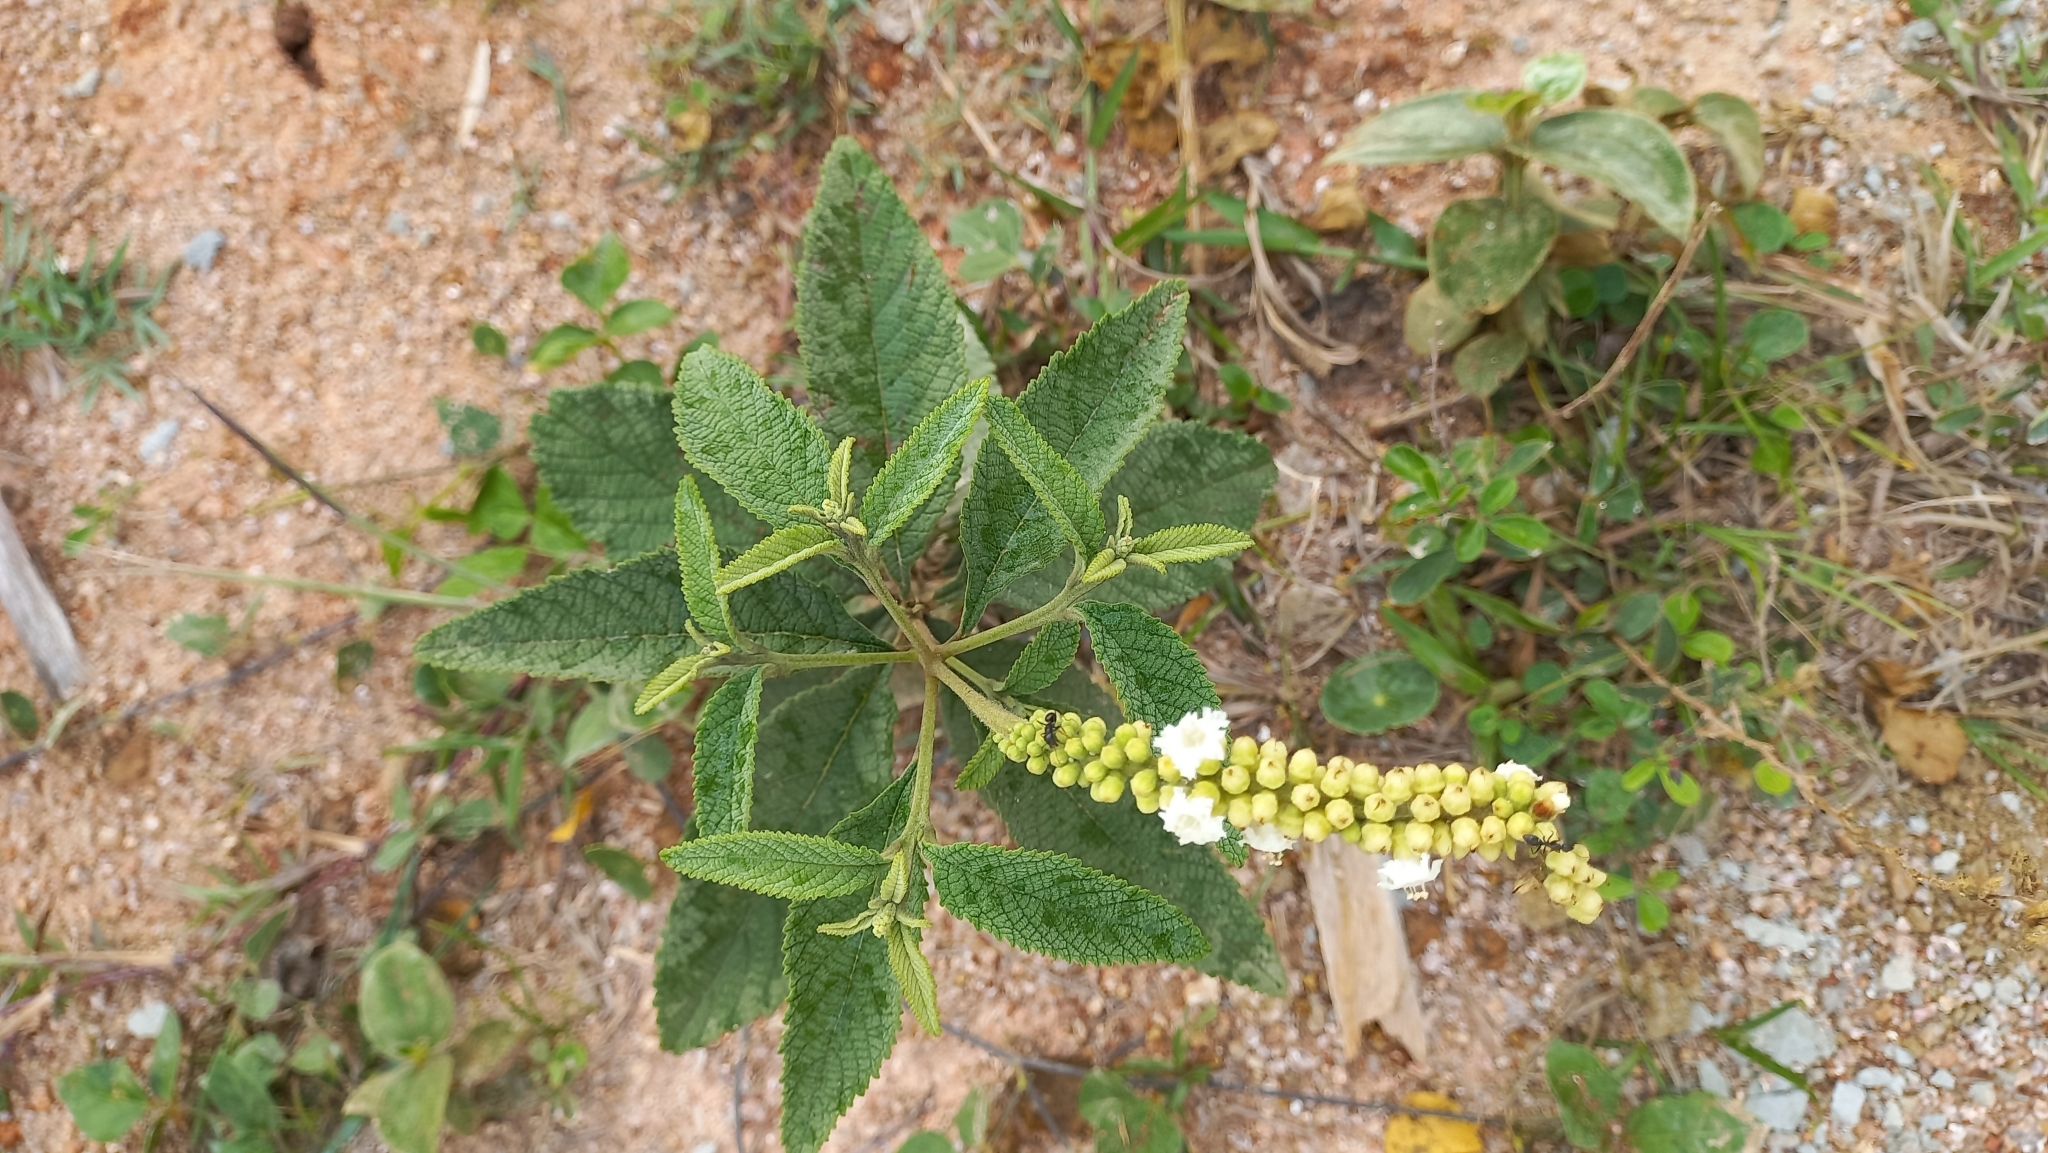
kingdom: Plantae
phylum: Tracheophyta
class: Magnoliopsida
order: Boraginales
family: Cordiaceae
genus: Varronia
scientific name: Varronia curassavica
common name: Black sage
